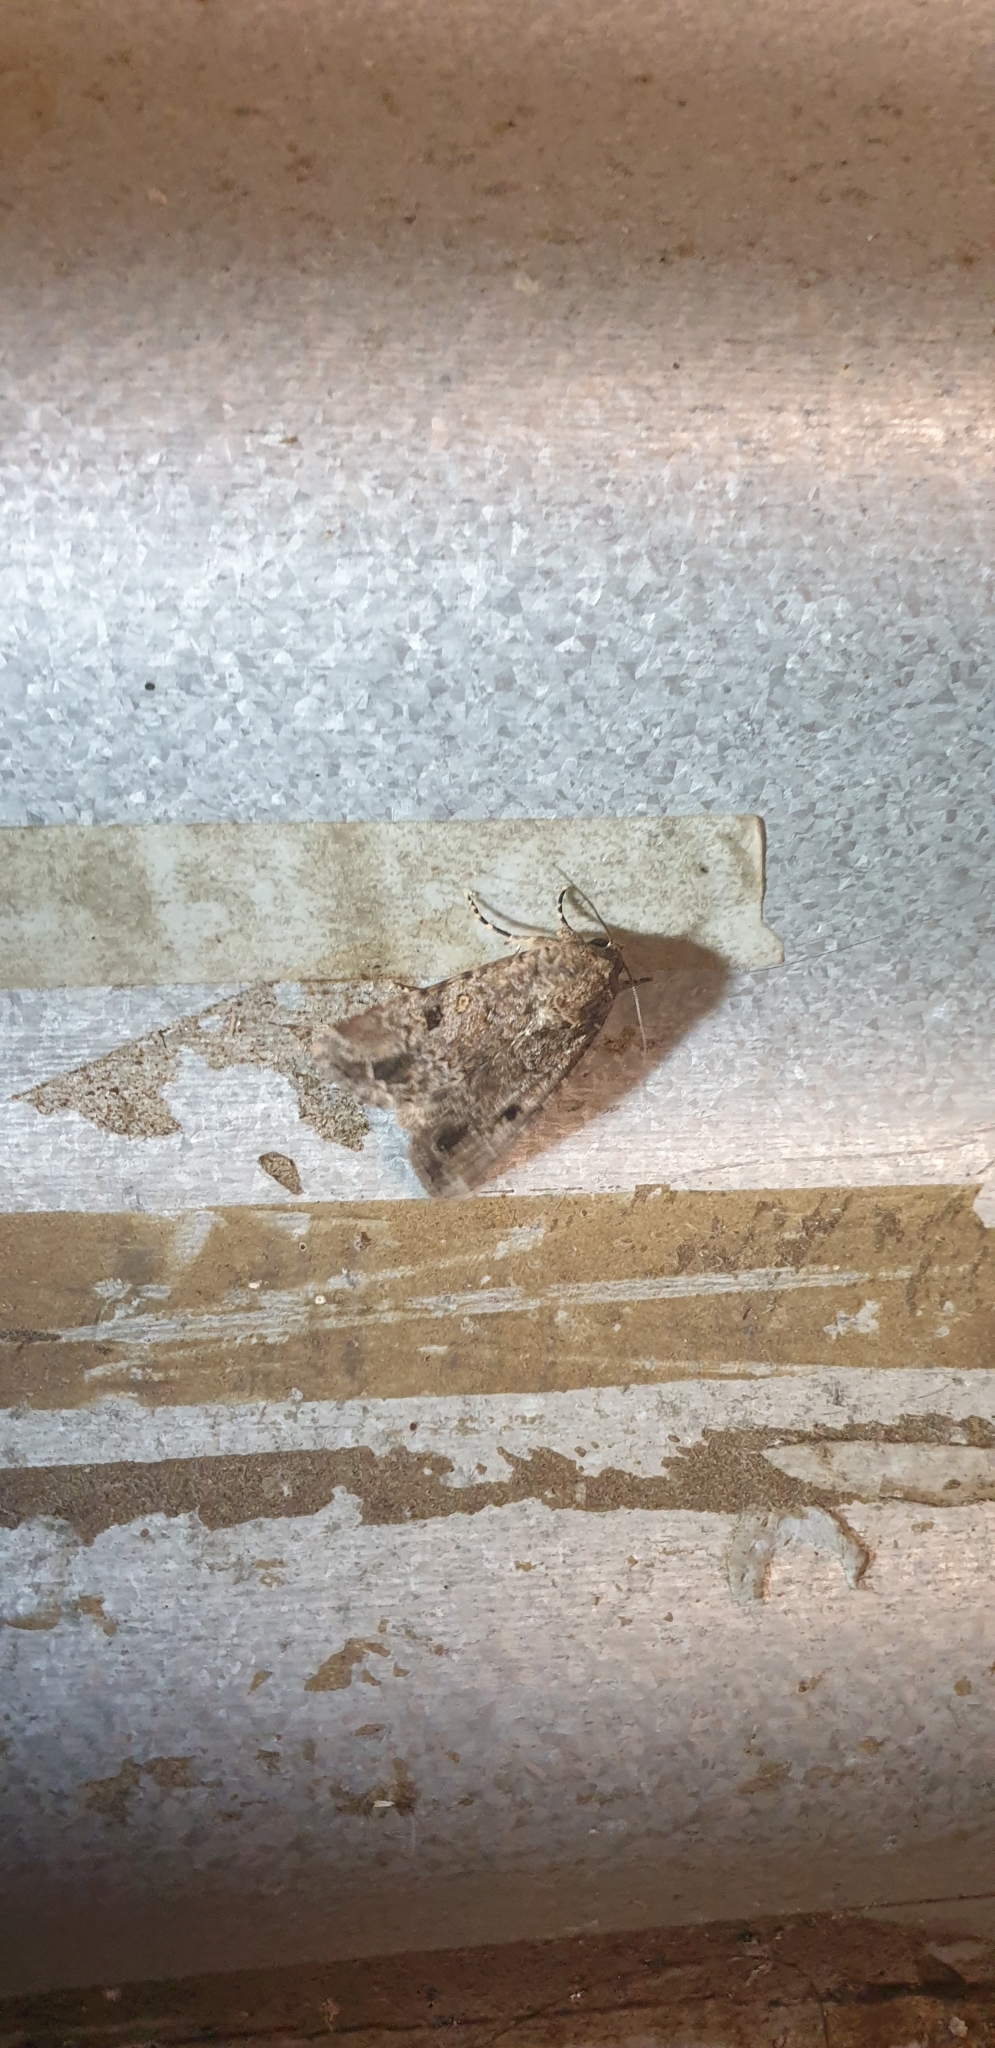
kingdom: Animalia
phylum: Arthropoda
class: Insecta
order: Lepidoptera
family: Noctuidae
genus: Spodoptera
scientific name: Spodoptera exempta
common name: African armyworm
